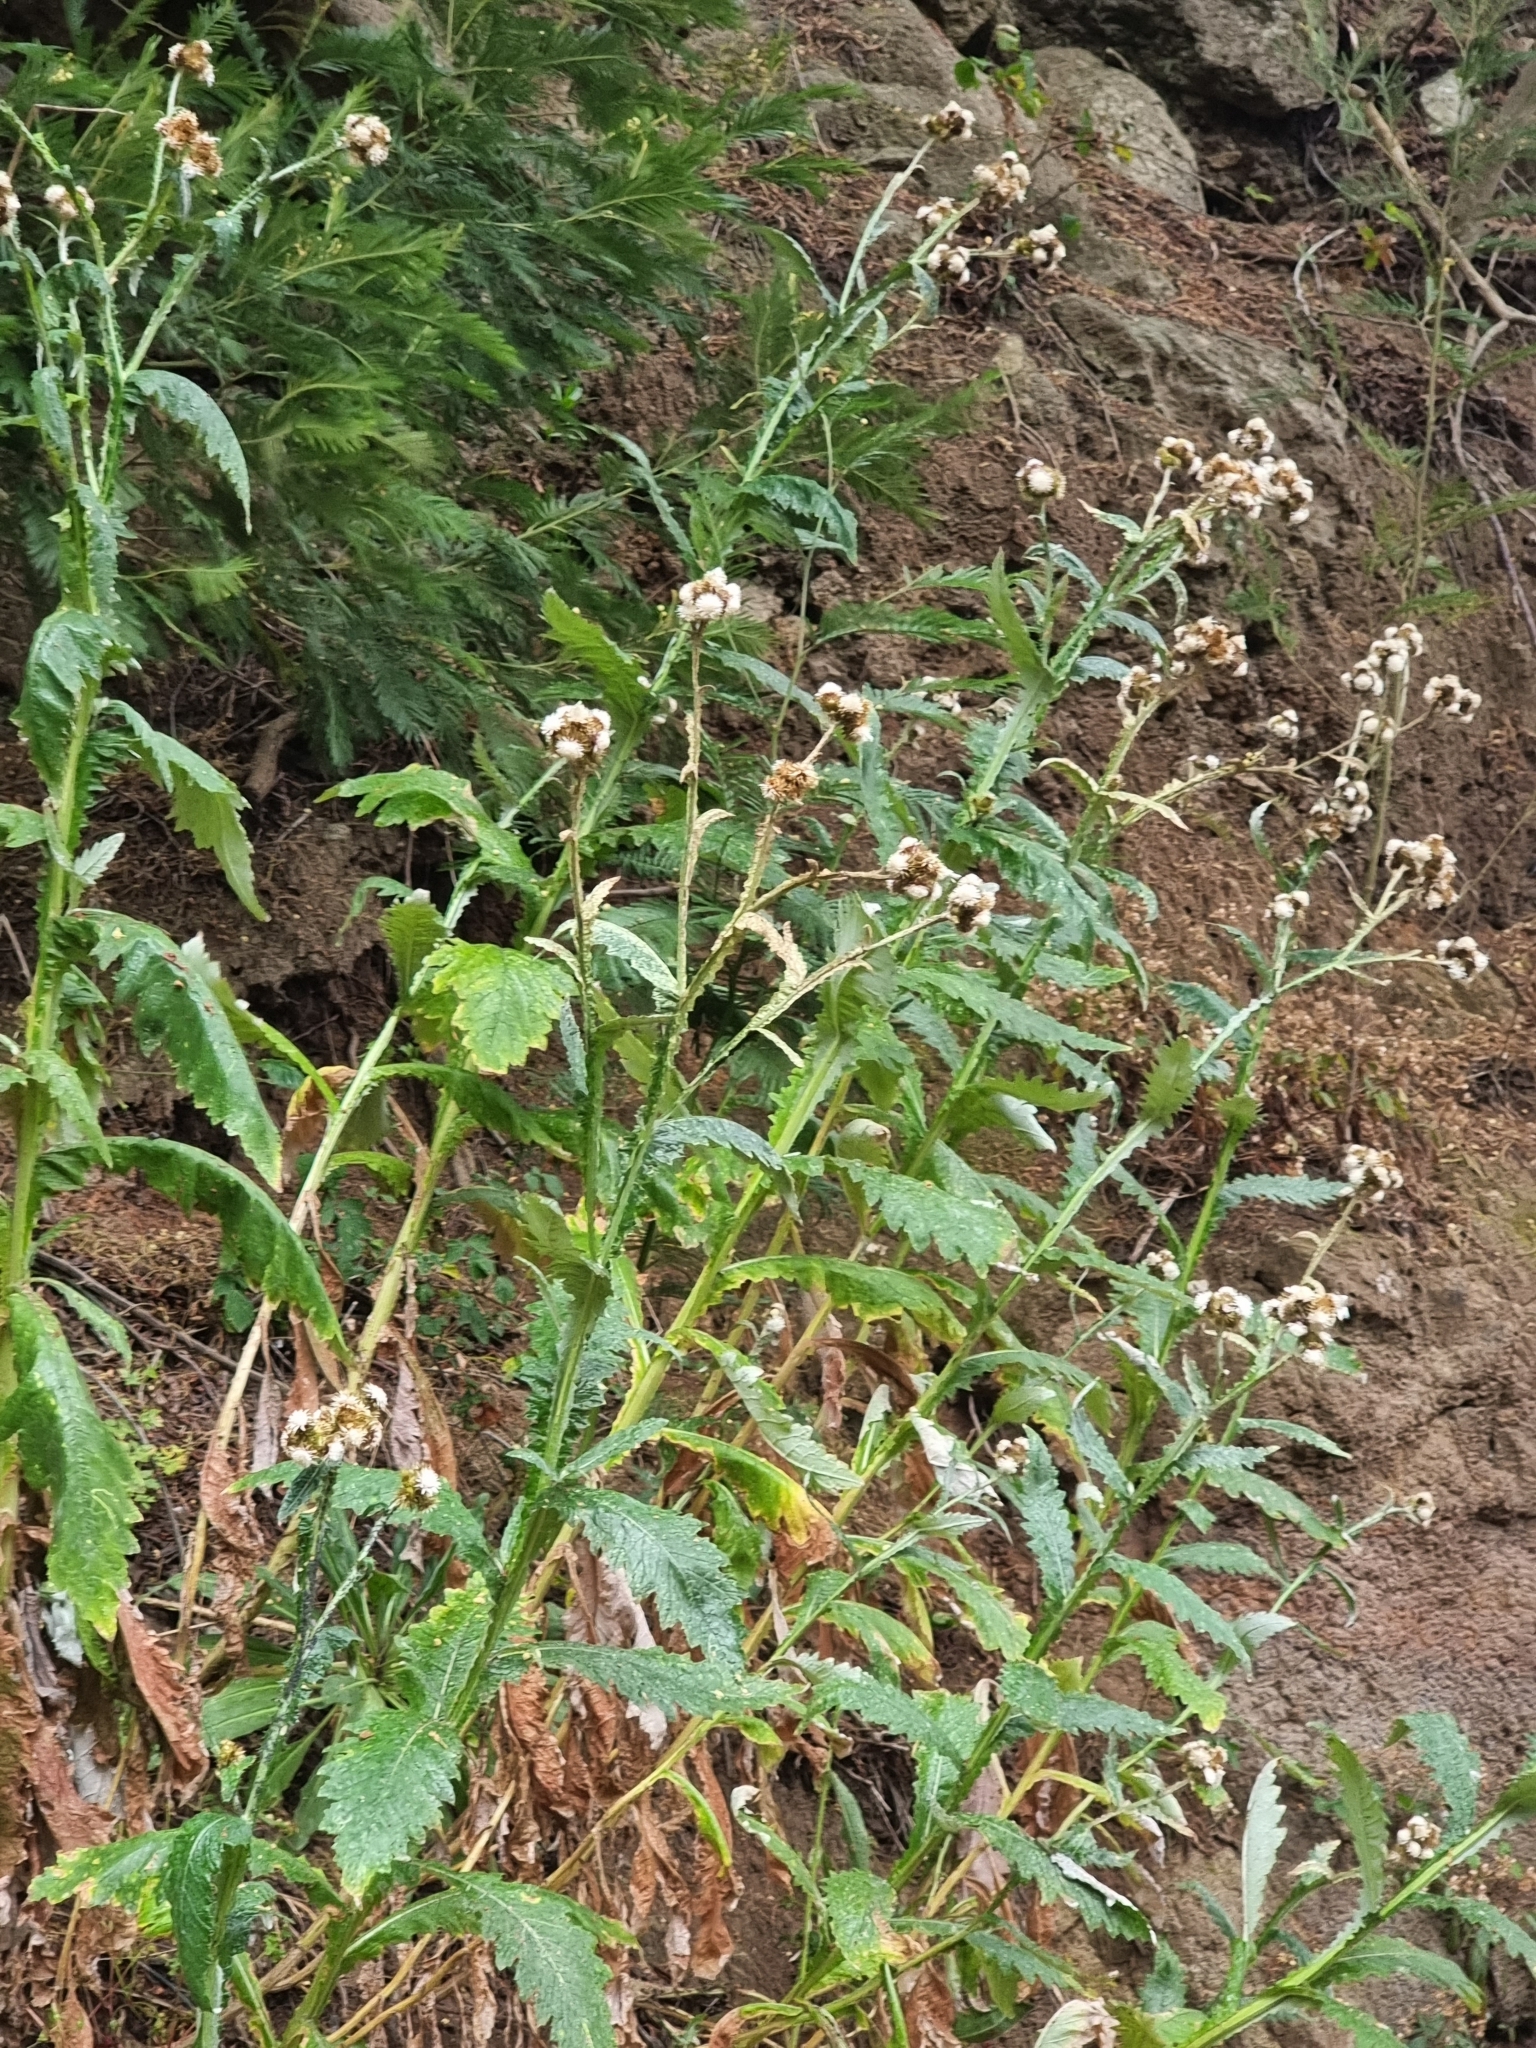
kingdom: Plantae
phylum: Tracheophyta
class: Magnoliopsida
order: Asterales
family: Asteraceae
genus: Carduus
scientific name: Carduus squarrosus
